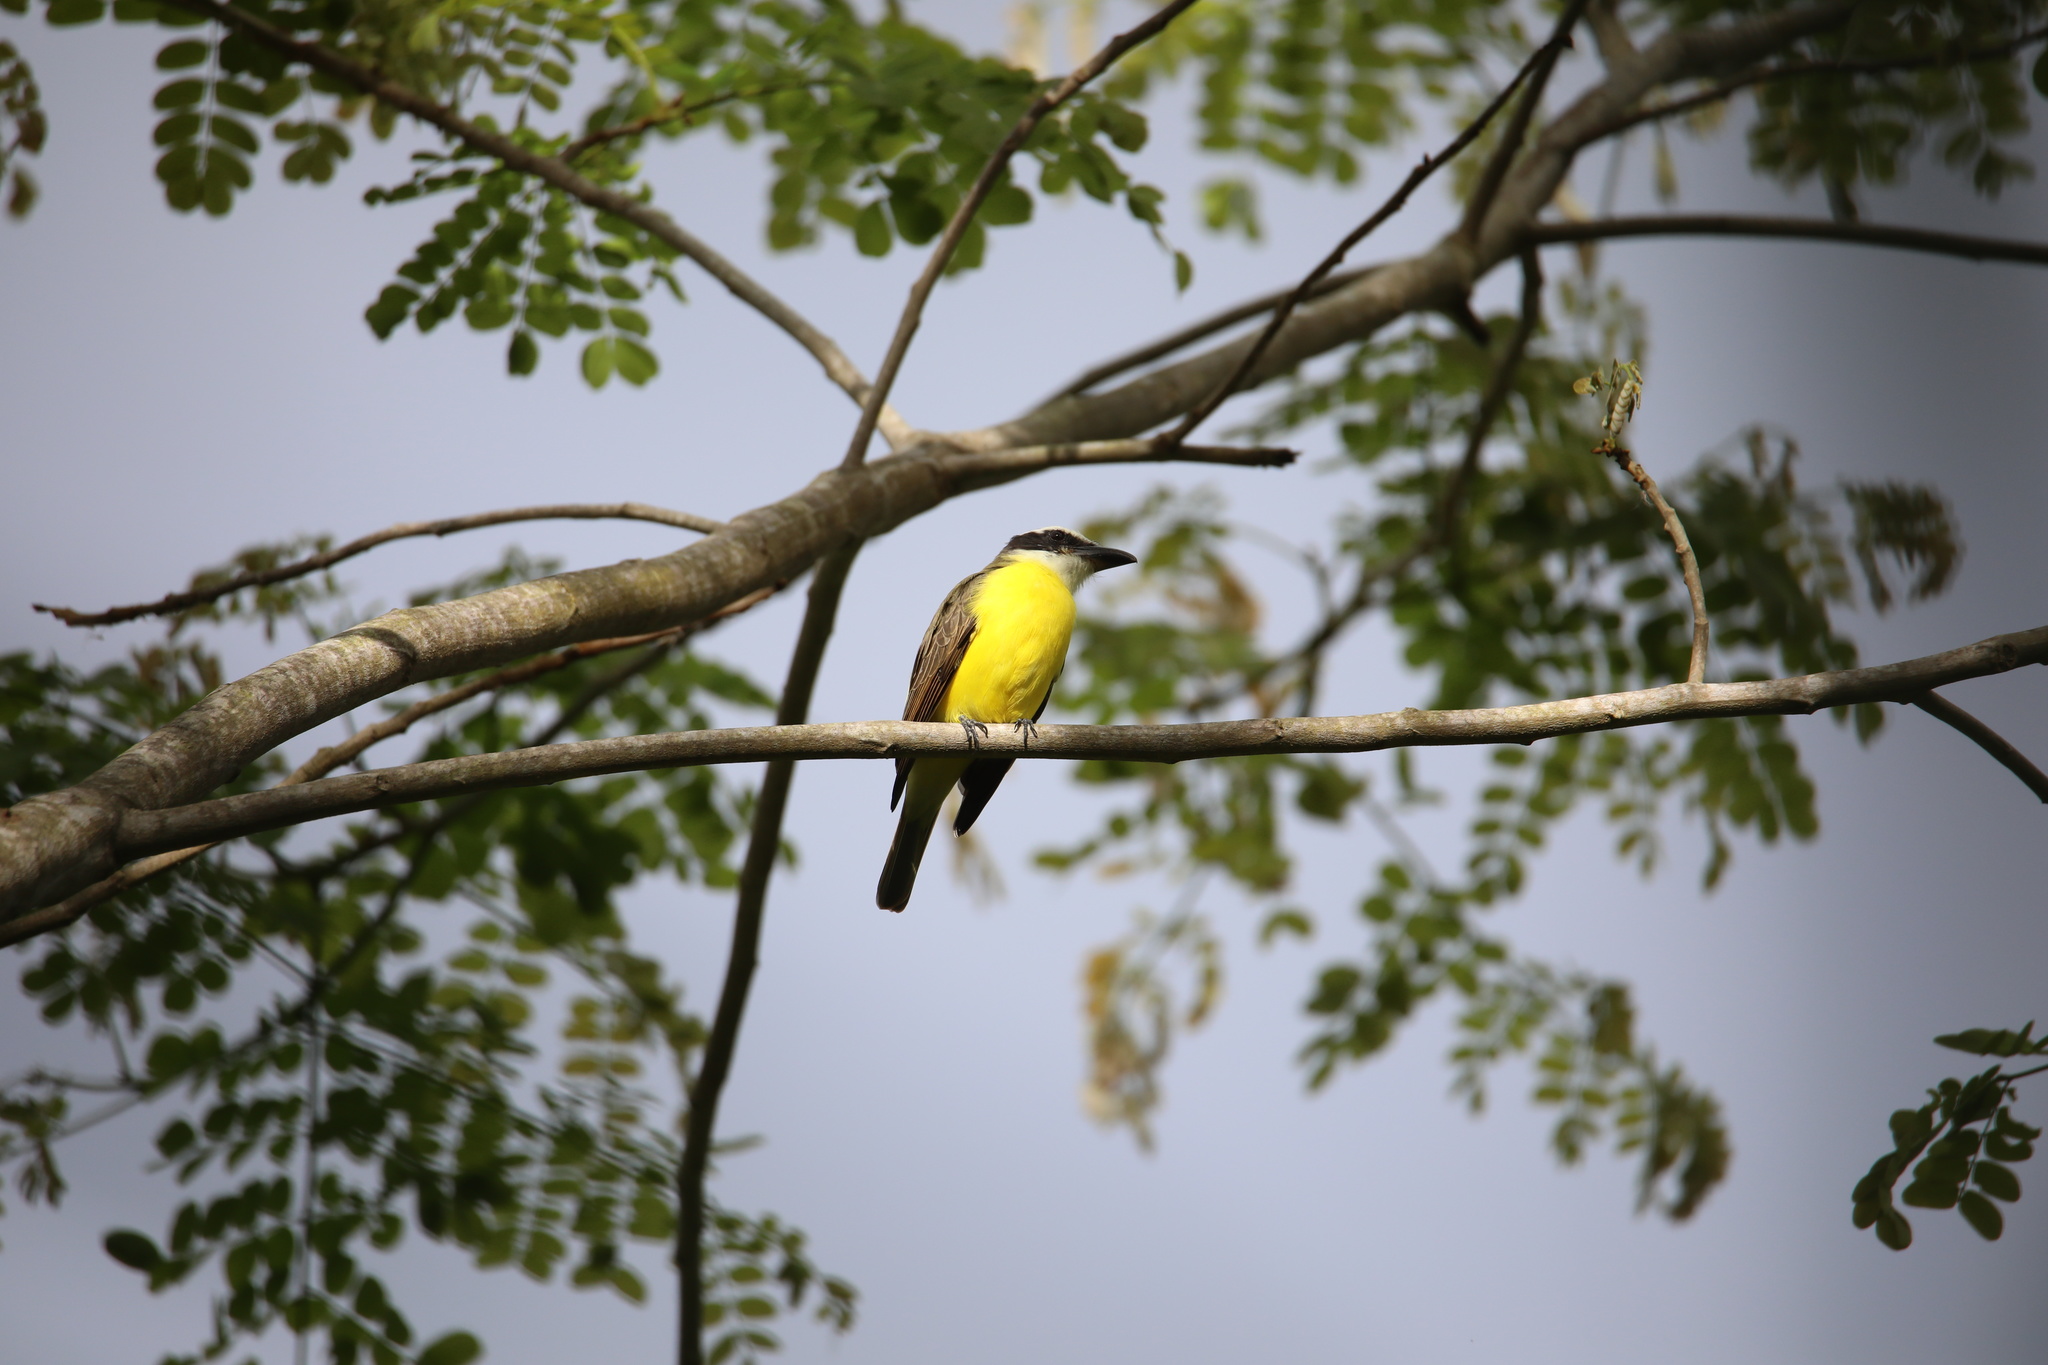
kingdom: Animalia
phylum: Chordata
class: Aves
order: Passeriformes
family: Tyrannidae
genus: Megarynchus
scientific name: Megarynchus pitangua
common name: Boat-billed flycatcher
